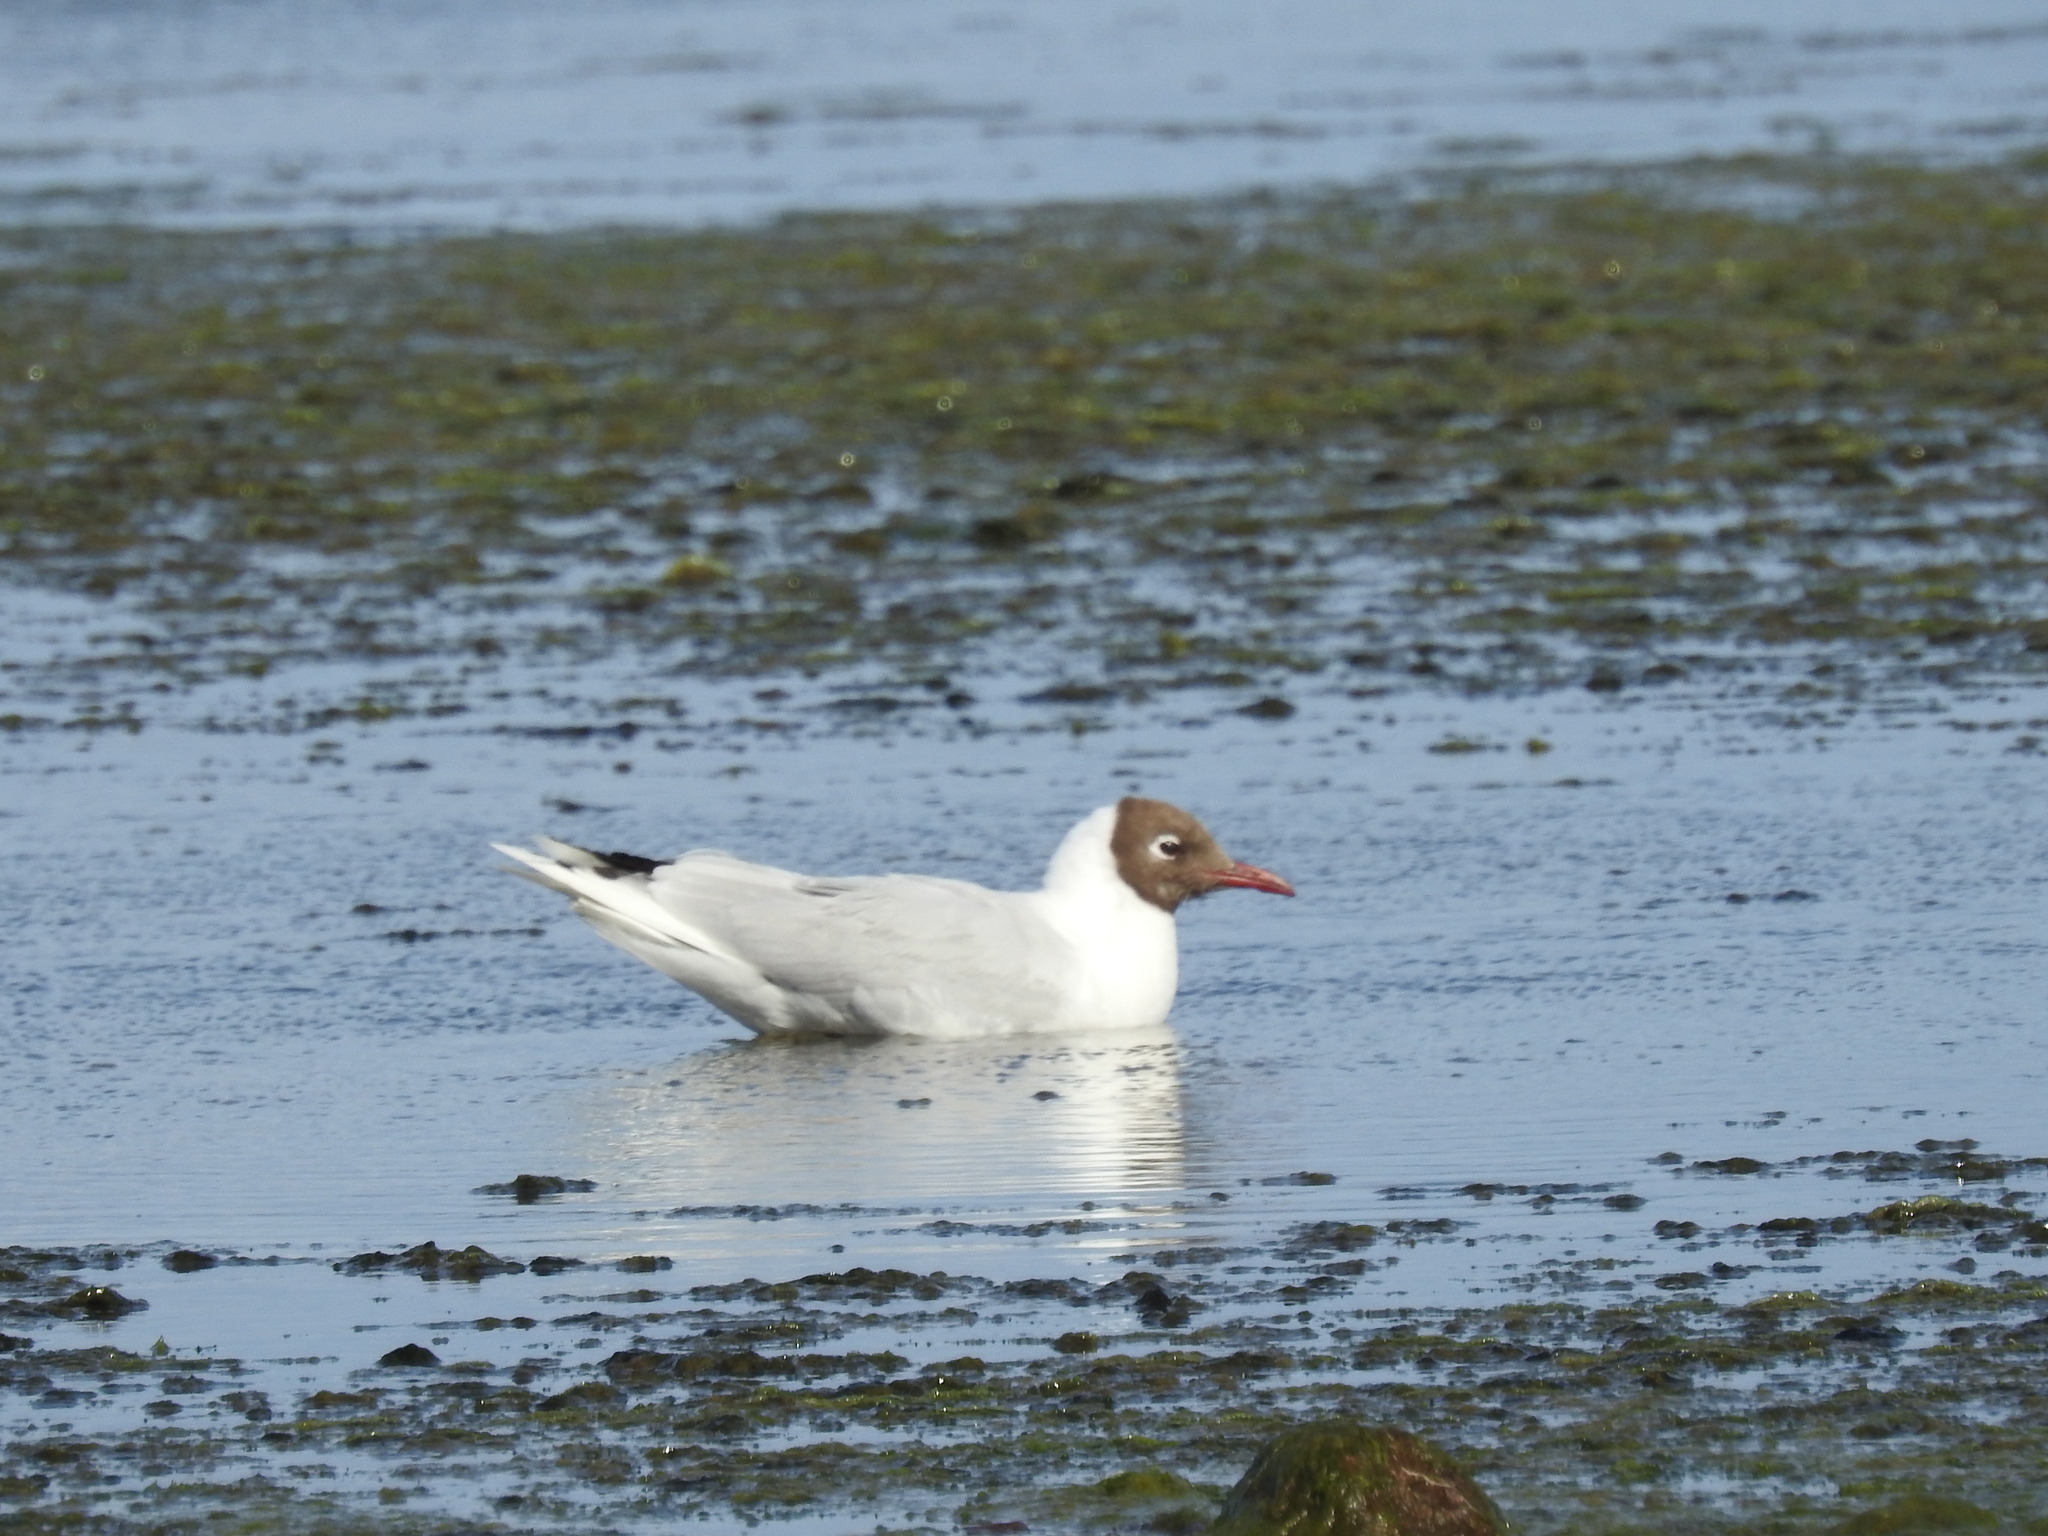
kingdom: Animalia
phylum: Chordata
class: Aves
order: Charadriiformes
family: Laridae
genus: Chroicocephalus
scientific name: Chroicocephalus maculipennis
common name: Brown-hooded gull
